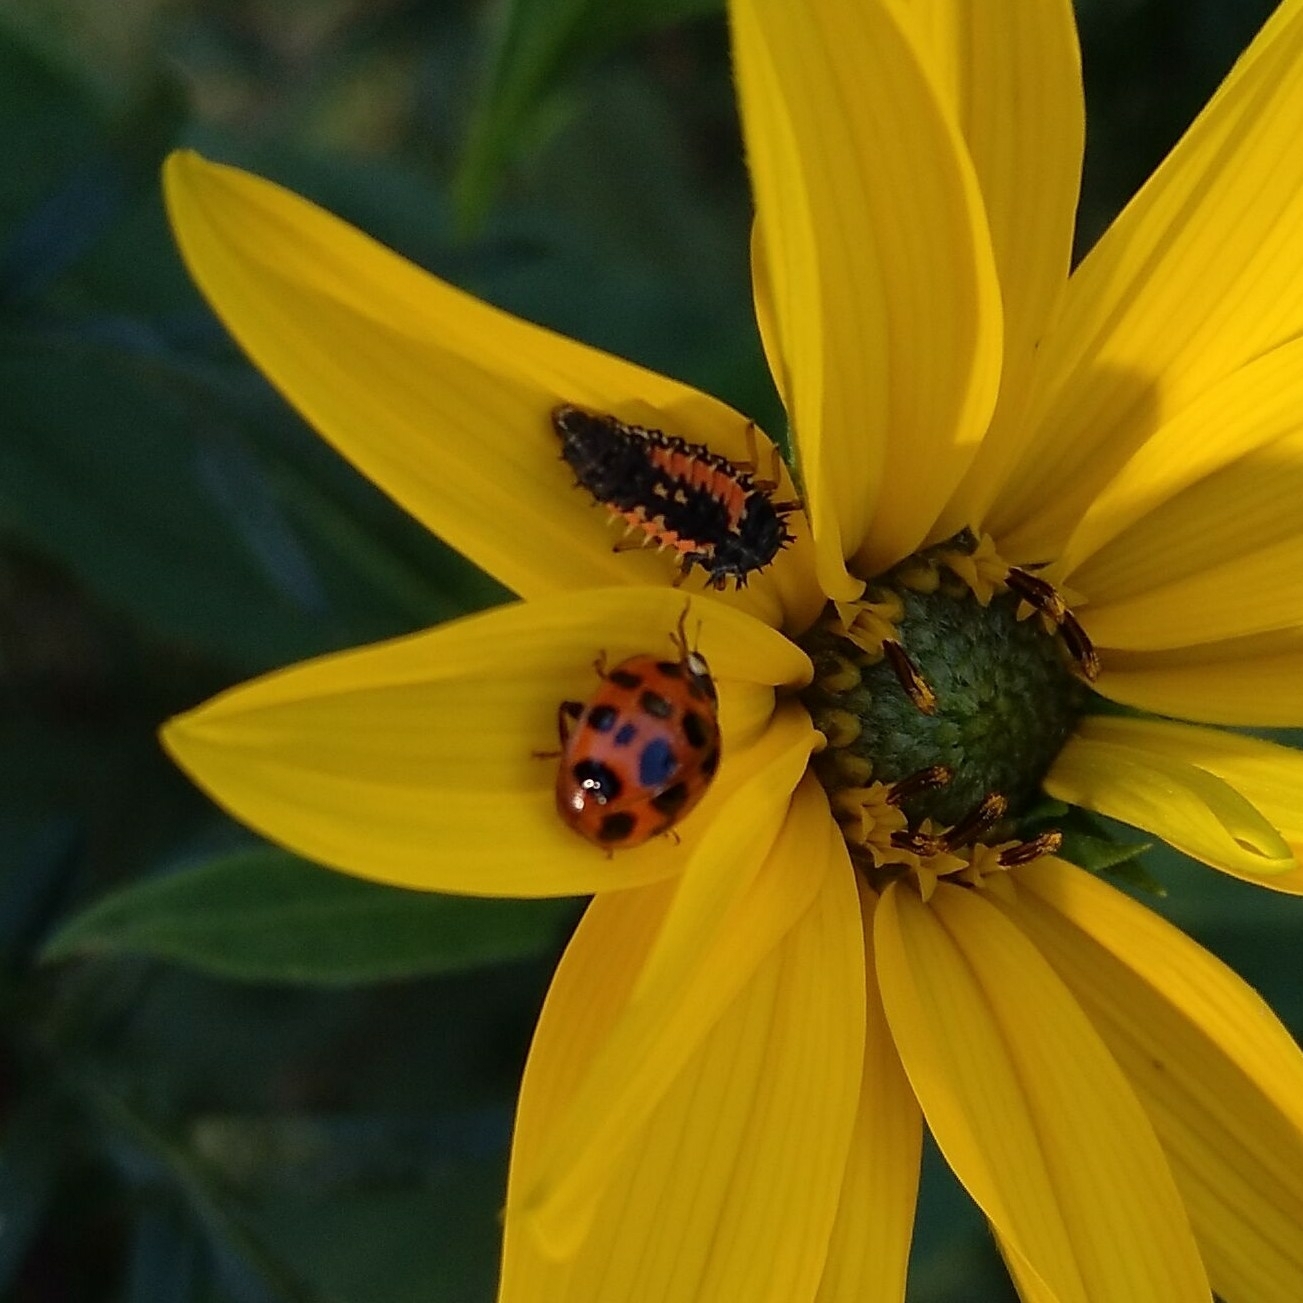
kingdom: Animalia
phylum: Arthropoda
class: Insecta
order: Coleoptera
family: Coccinellidae
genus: Harmonia
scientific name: Harmonia axyridis
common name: Harlequin ladybird
